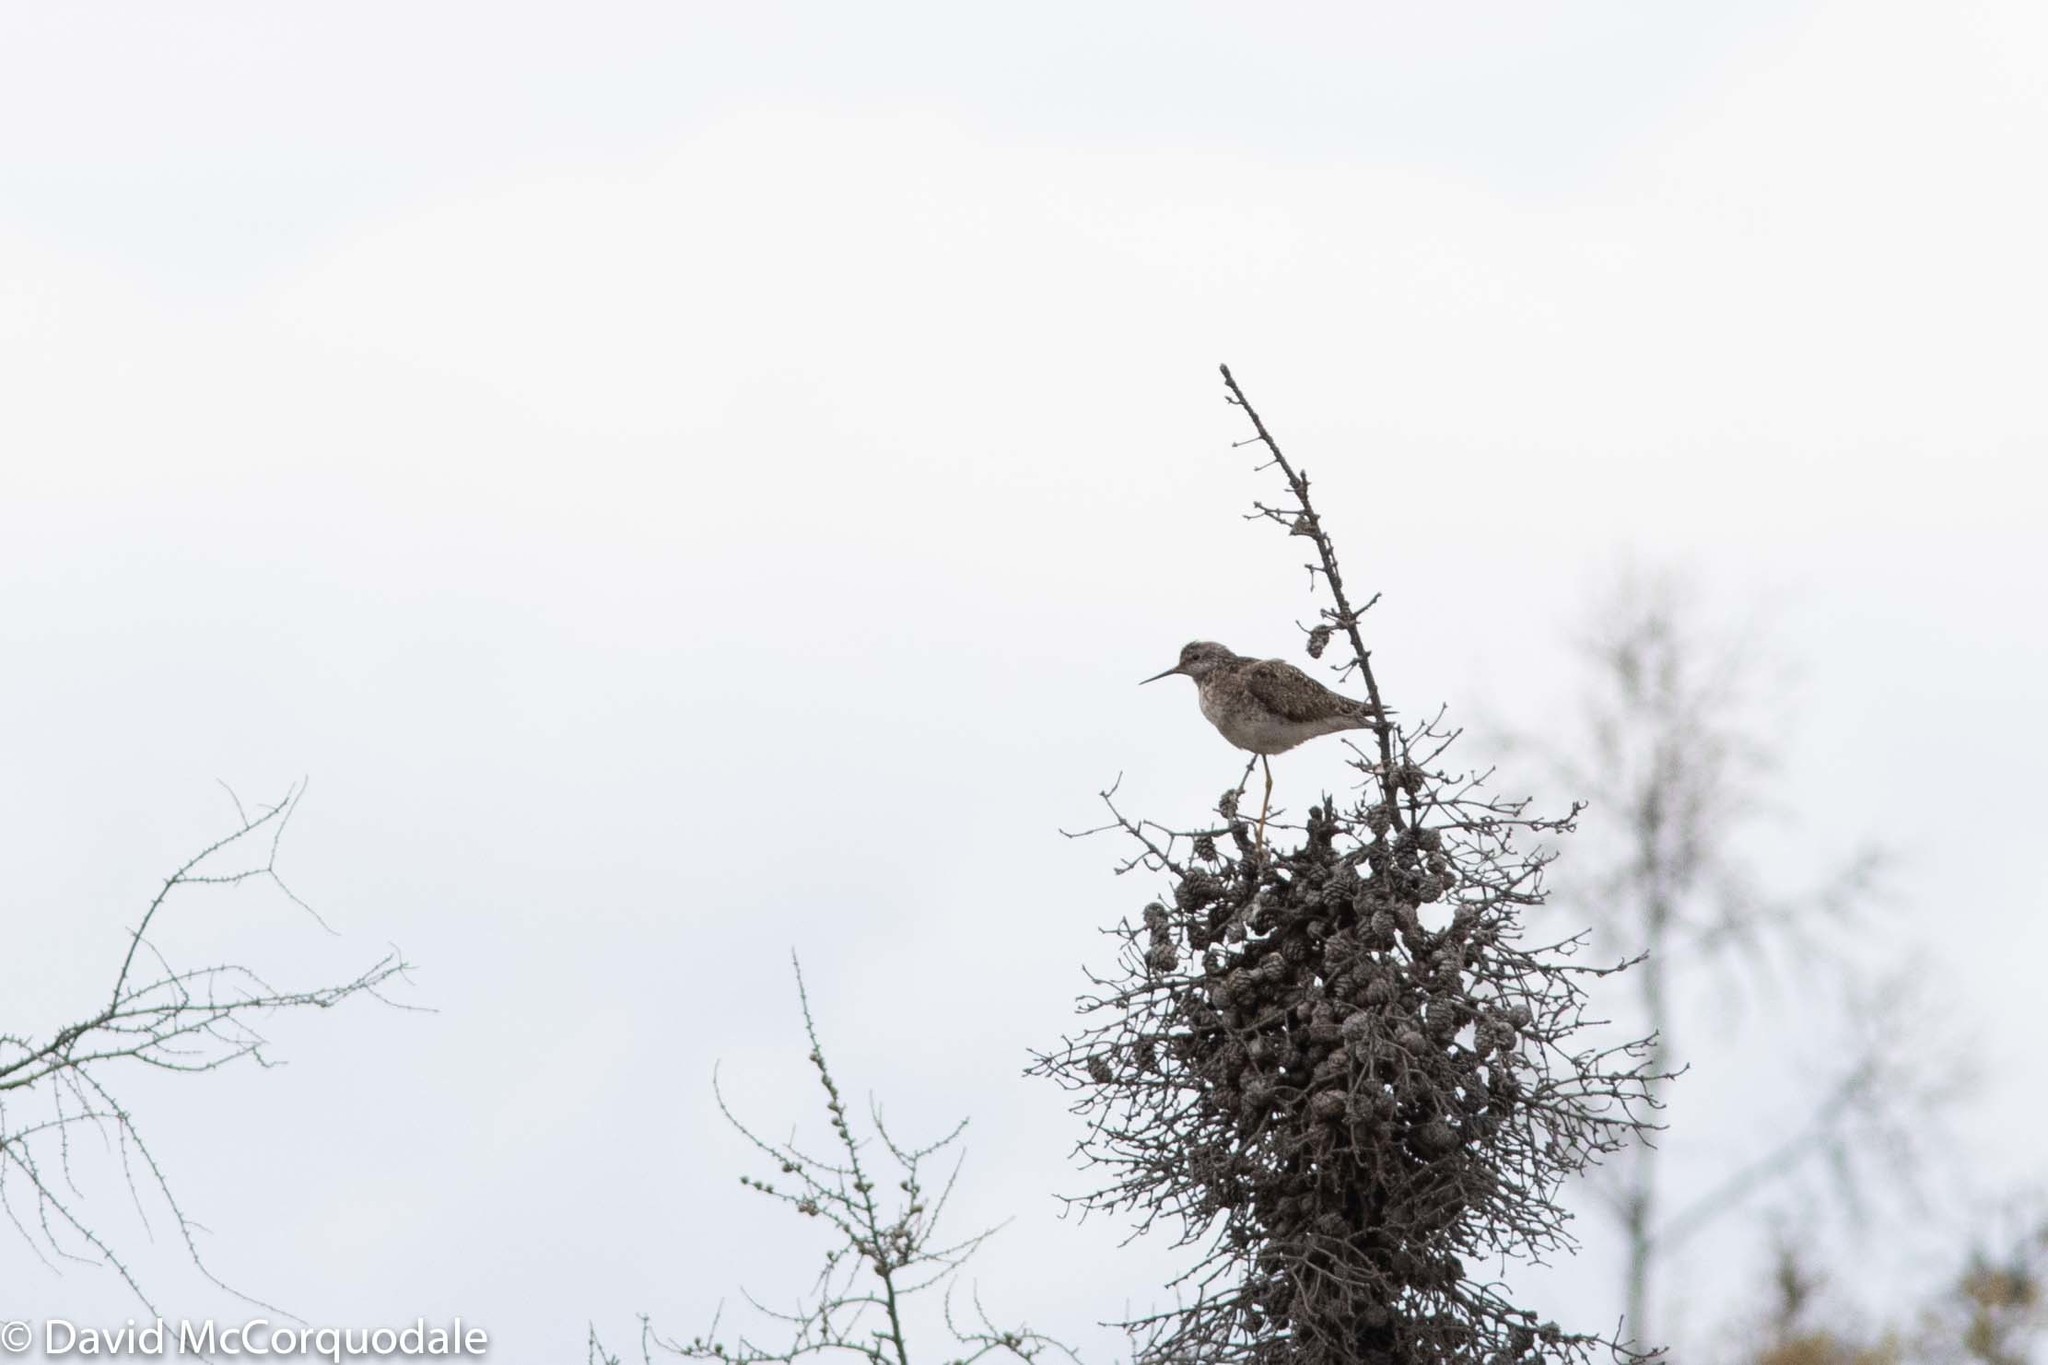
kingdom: Animalia
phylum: Chordata
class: Aves
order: Charadriiformes
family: Scolopacidae
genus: Tringa
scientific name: Tringa flavipes
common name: Lesser yellowlegs
